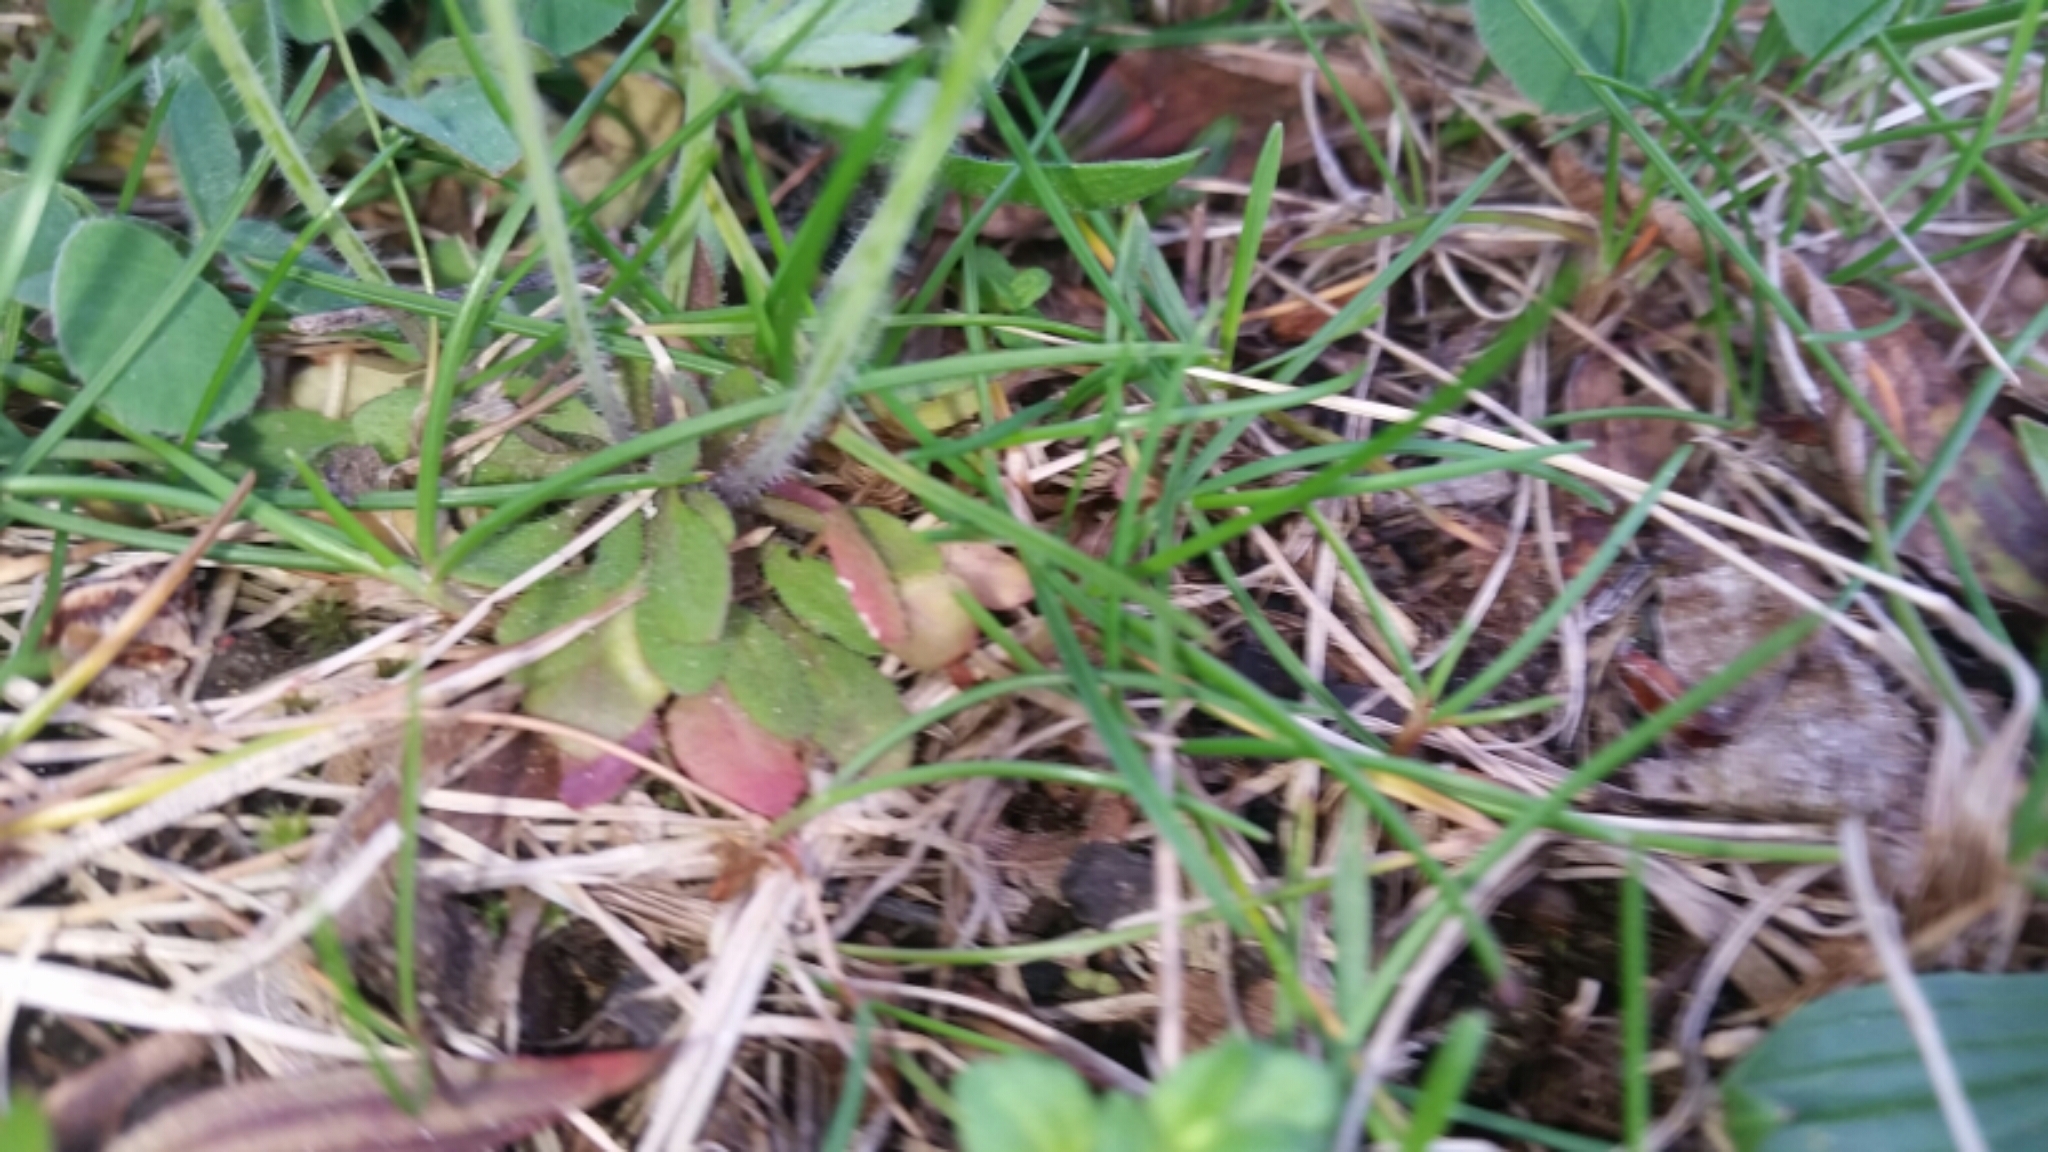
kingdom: Plantae
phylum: Tracheophyta
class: Magnoliopsida
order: Brassicales
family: Brassicaceae
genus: Arabidopsis
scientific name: Arabidopsis thaliana
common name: Thale cress
